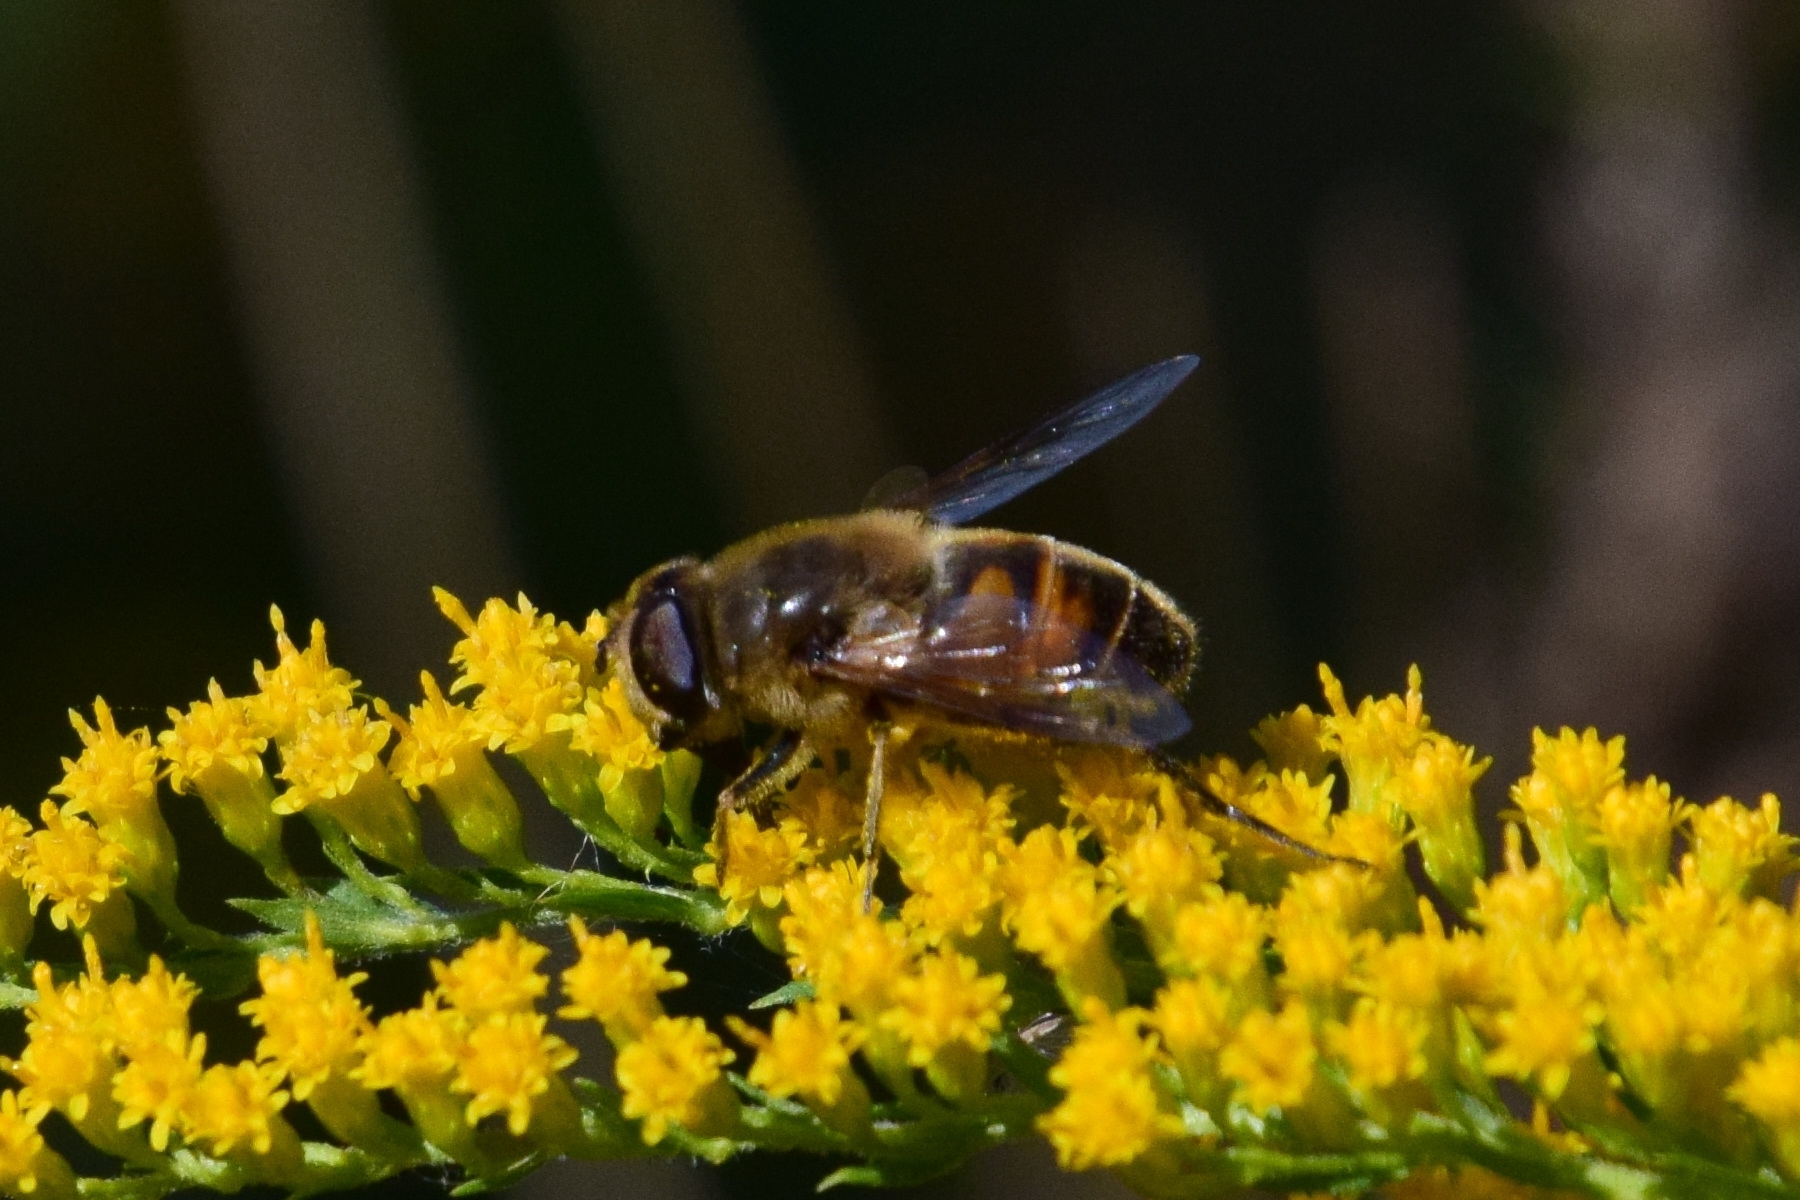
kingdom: Animalia
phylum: Arthropoda
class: Insecta
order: Diptera
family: Syrphidae
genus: Eristalis
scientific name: Eristalis tenax
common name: Drone fly
